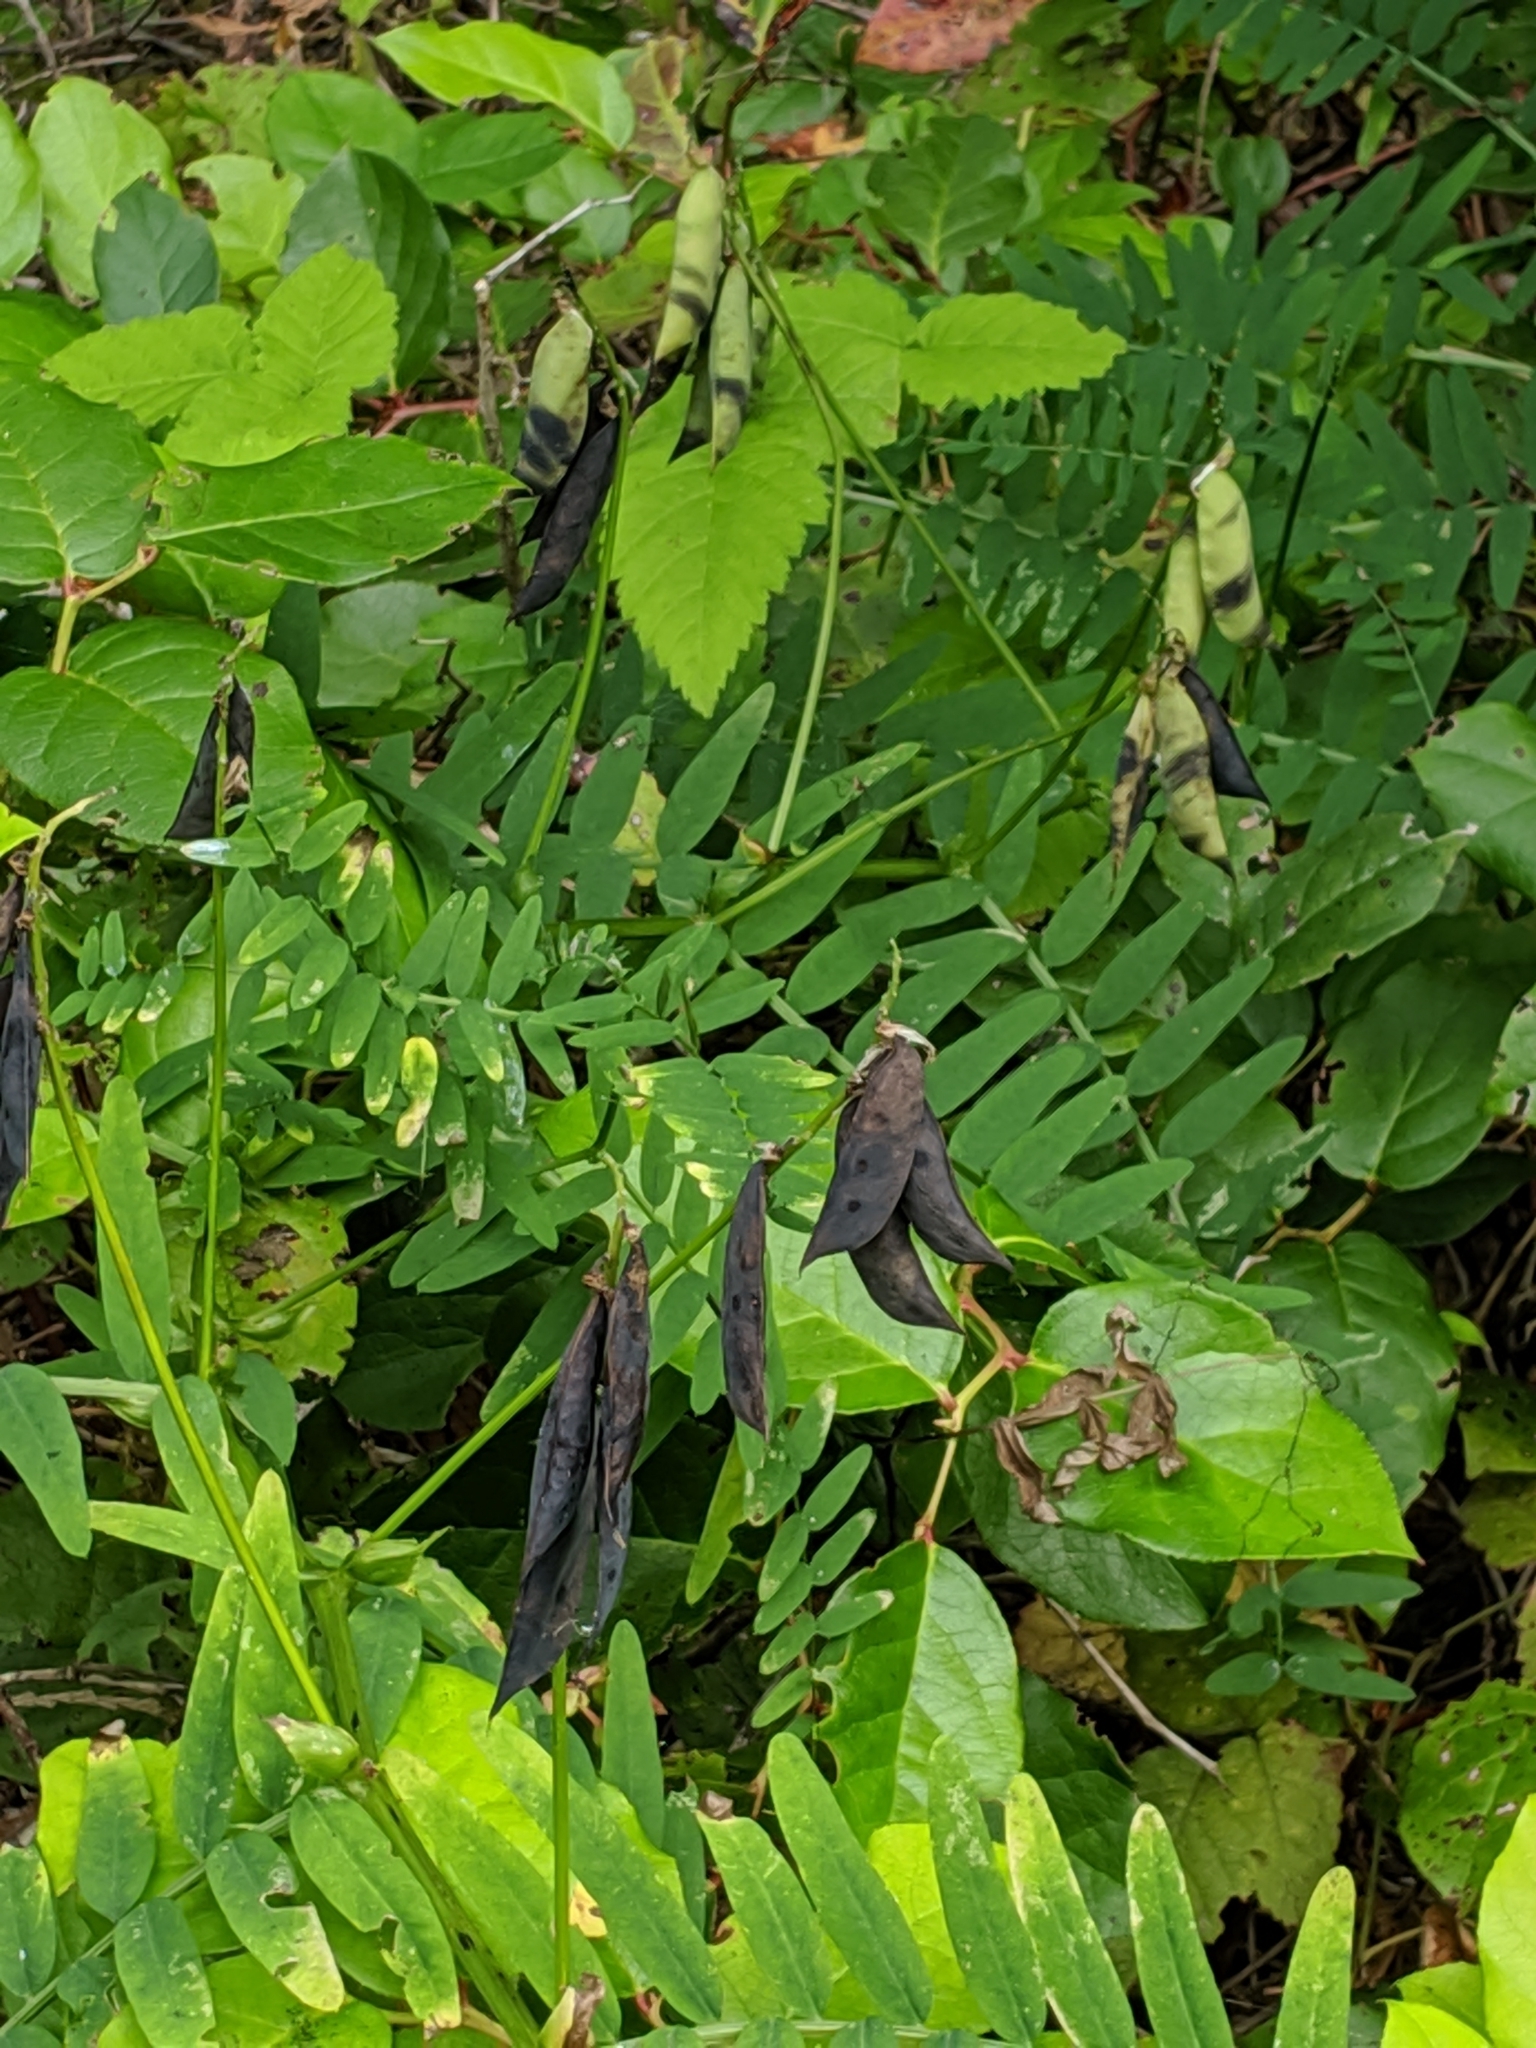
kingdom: Plantae
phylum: Tracheophyta
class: Magnoliopsida
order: Fabales
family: Fabaceae
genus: Vicia
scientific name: Vicia
